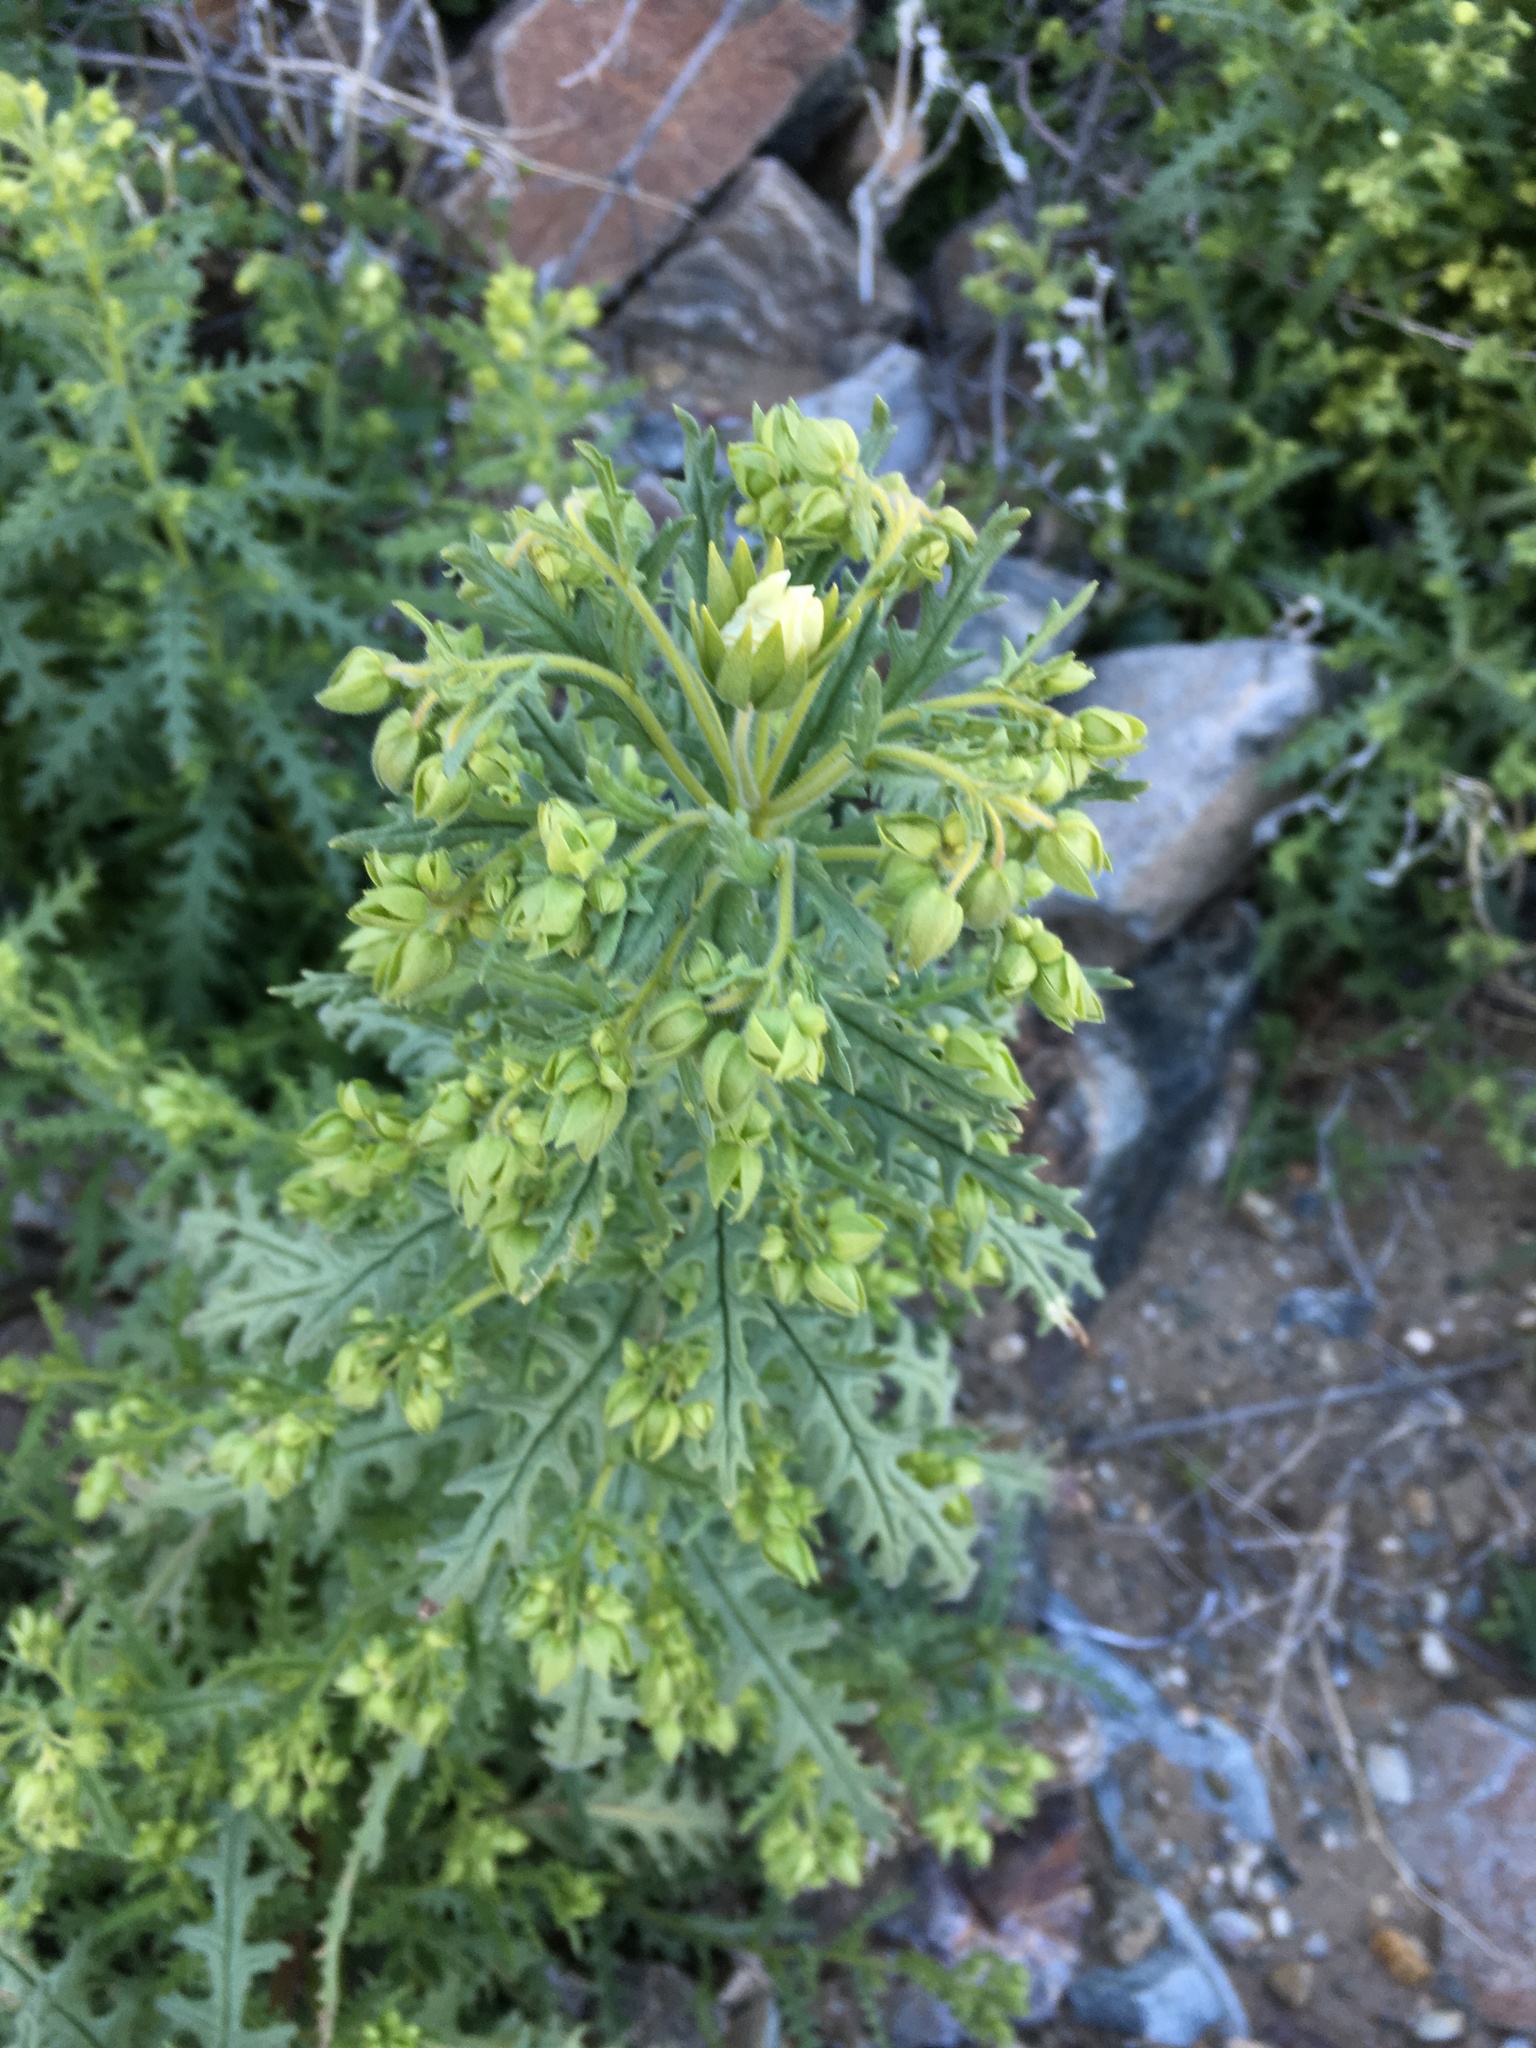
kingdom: Plantae
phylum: Tracheophyta
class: Magnoliopsida
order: Boraginales
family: Hydrophyllaceae
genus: Emmenanthe
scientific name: Emmenanthe penduliflora
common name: Whispering-bells
